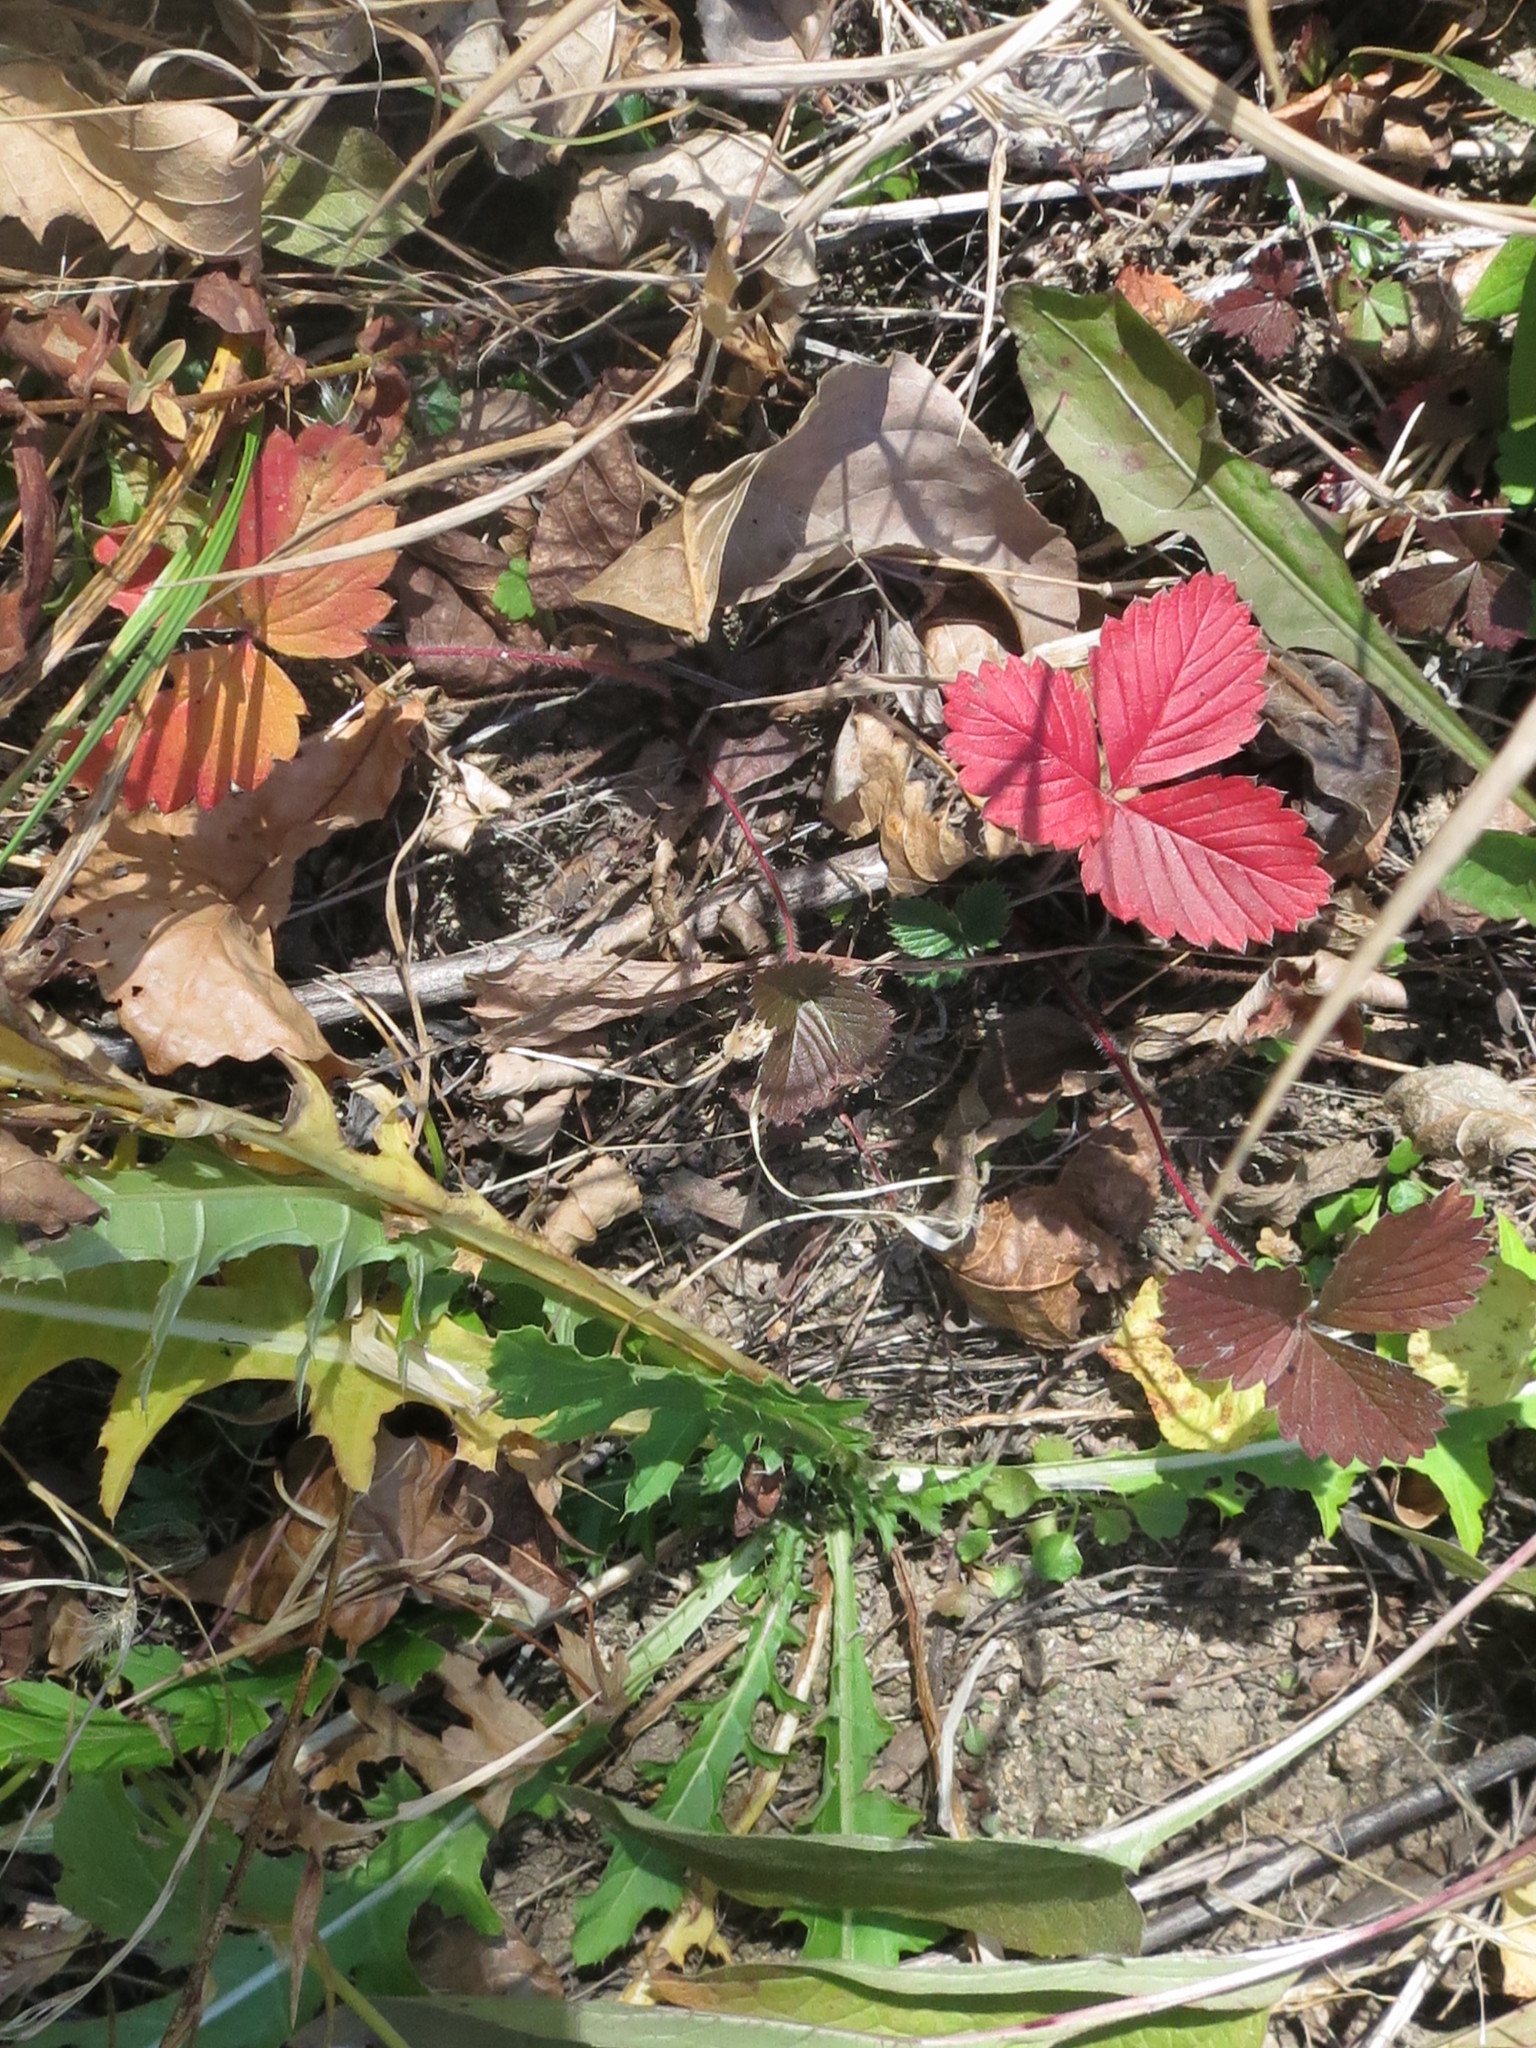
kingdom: Plantae
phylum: Tracheophyta
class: Magnoliopsida
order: Rosales
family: Rosaceae
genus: Fragaria
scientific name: Fragaria orientalis
